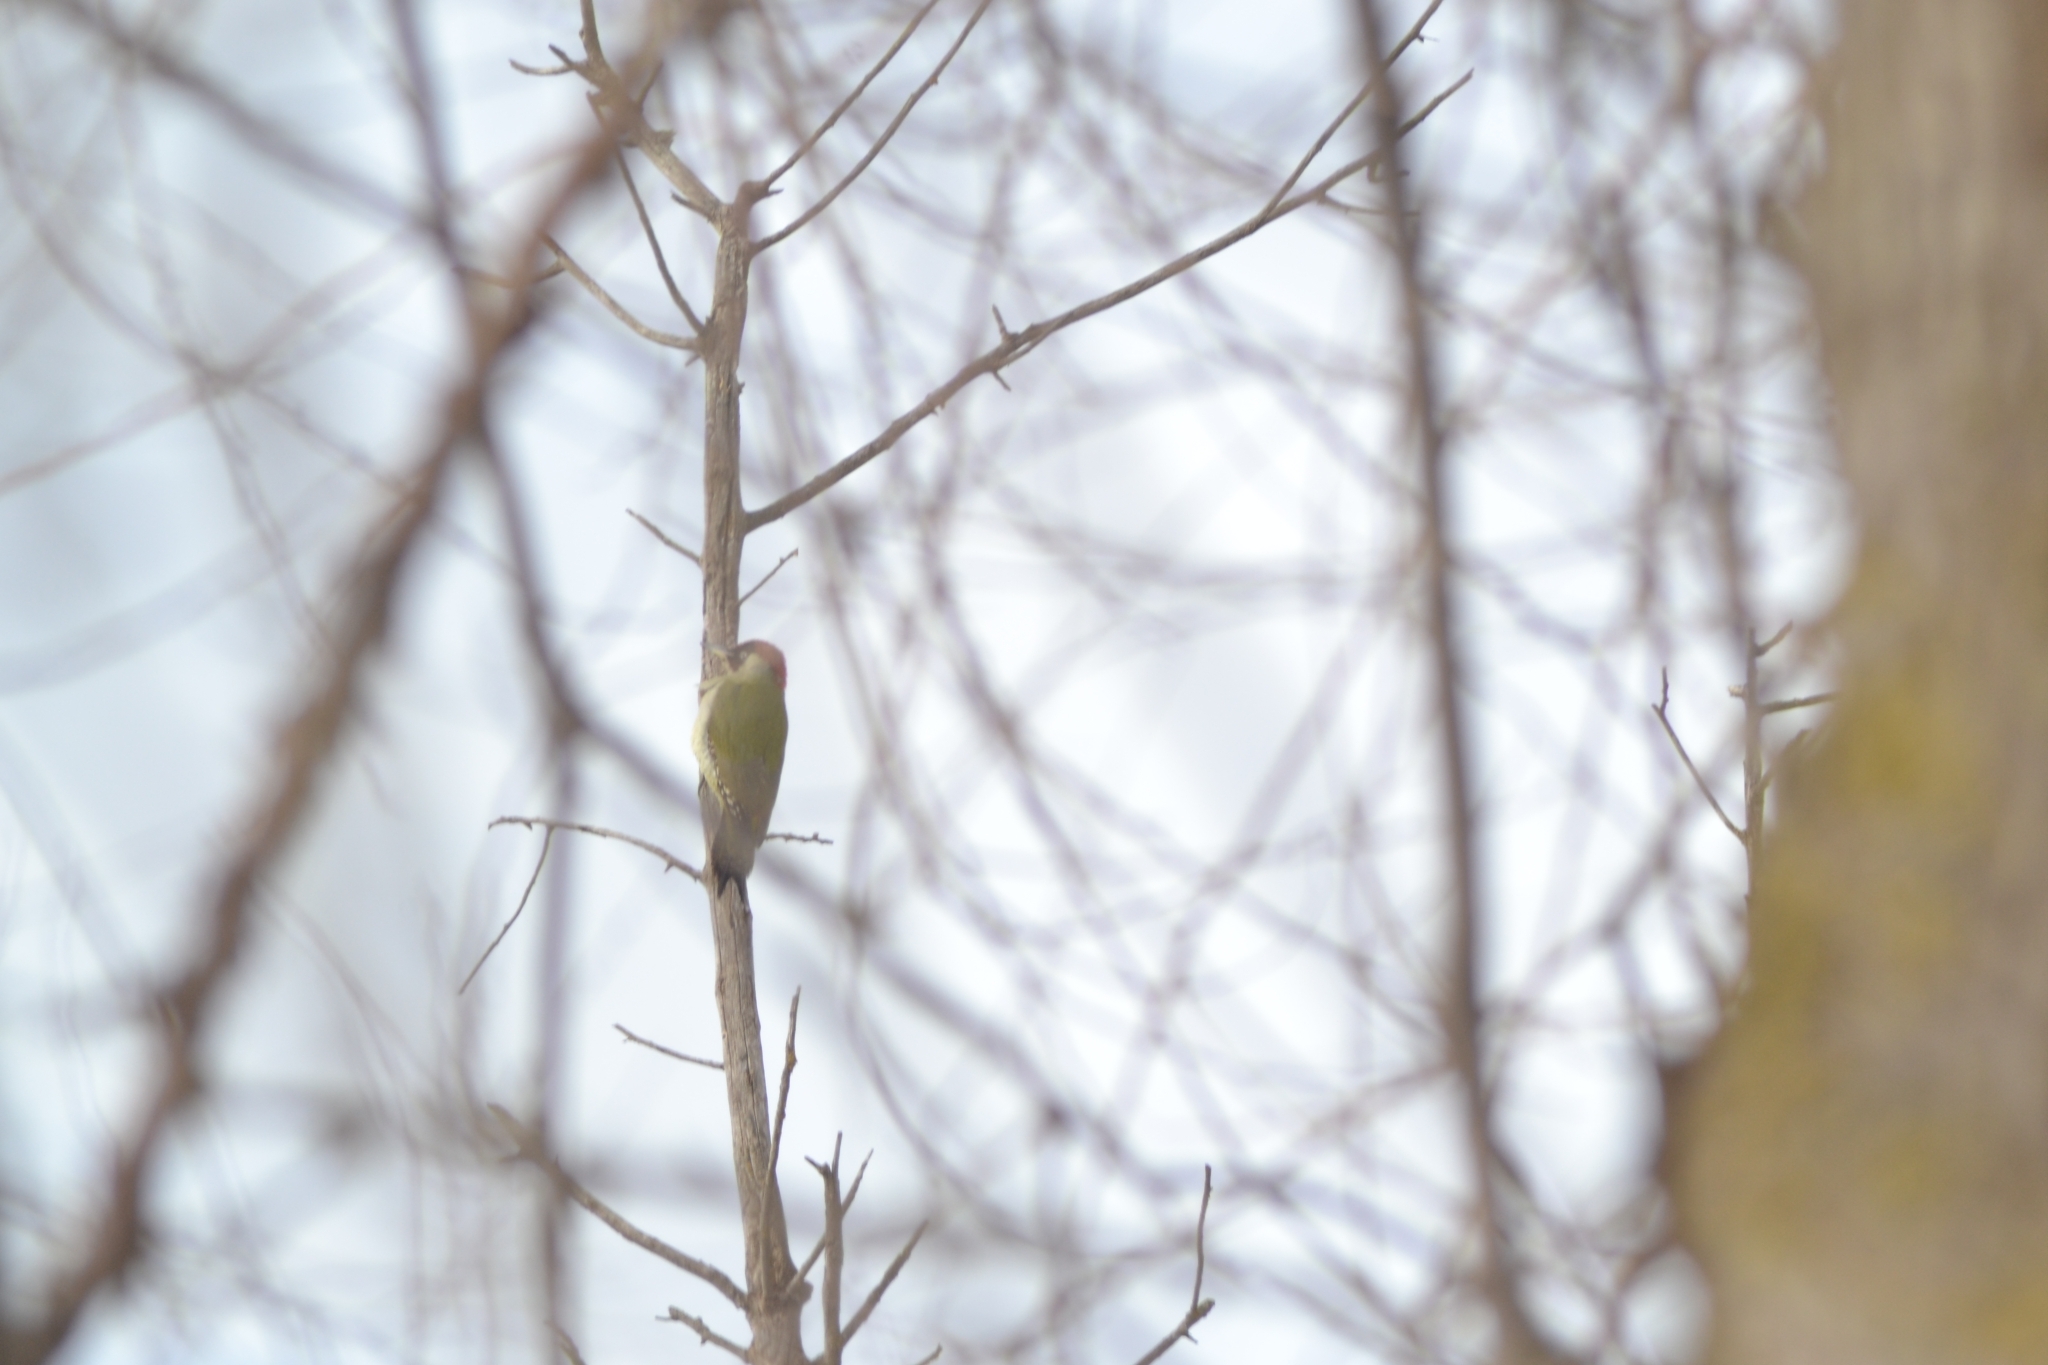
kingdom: Animalia
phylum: Chordata
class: Aves
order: Piciformes
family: Picidae
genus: Picus
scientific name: Picus viridis
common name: European green woodpecker
